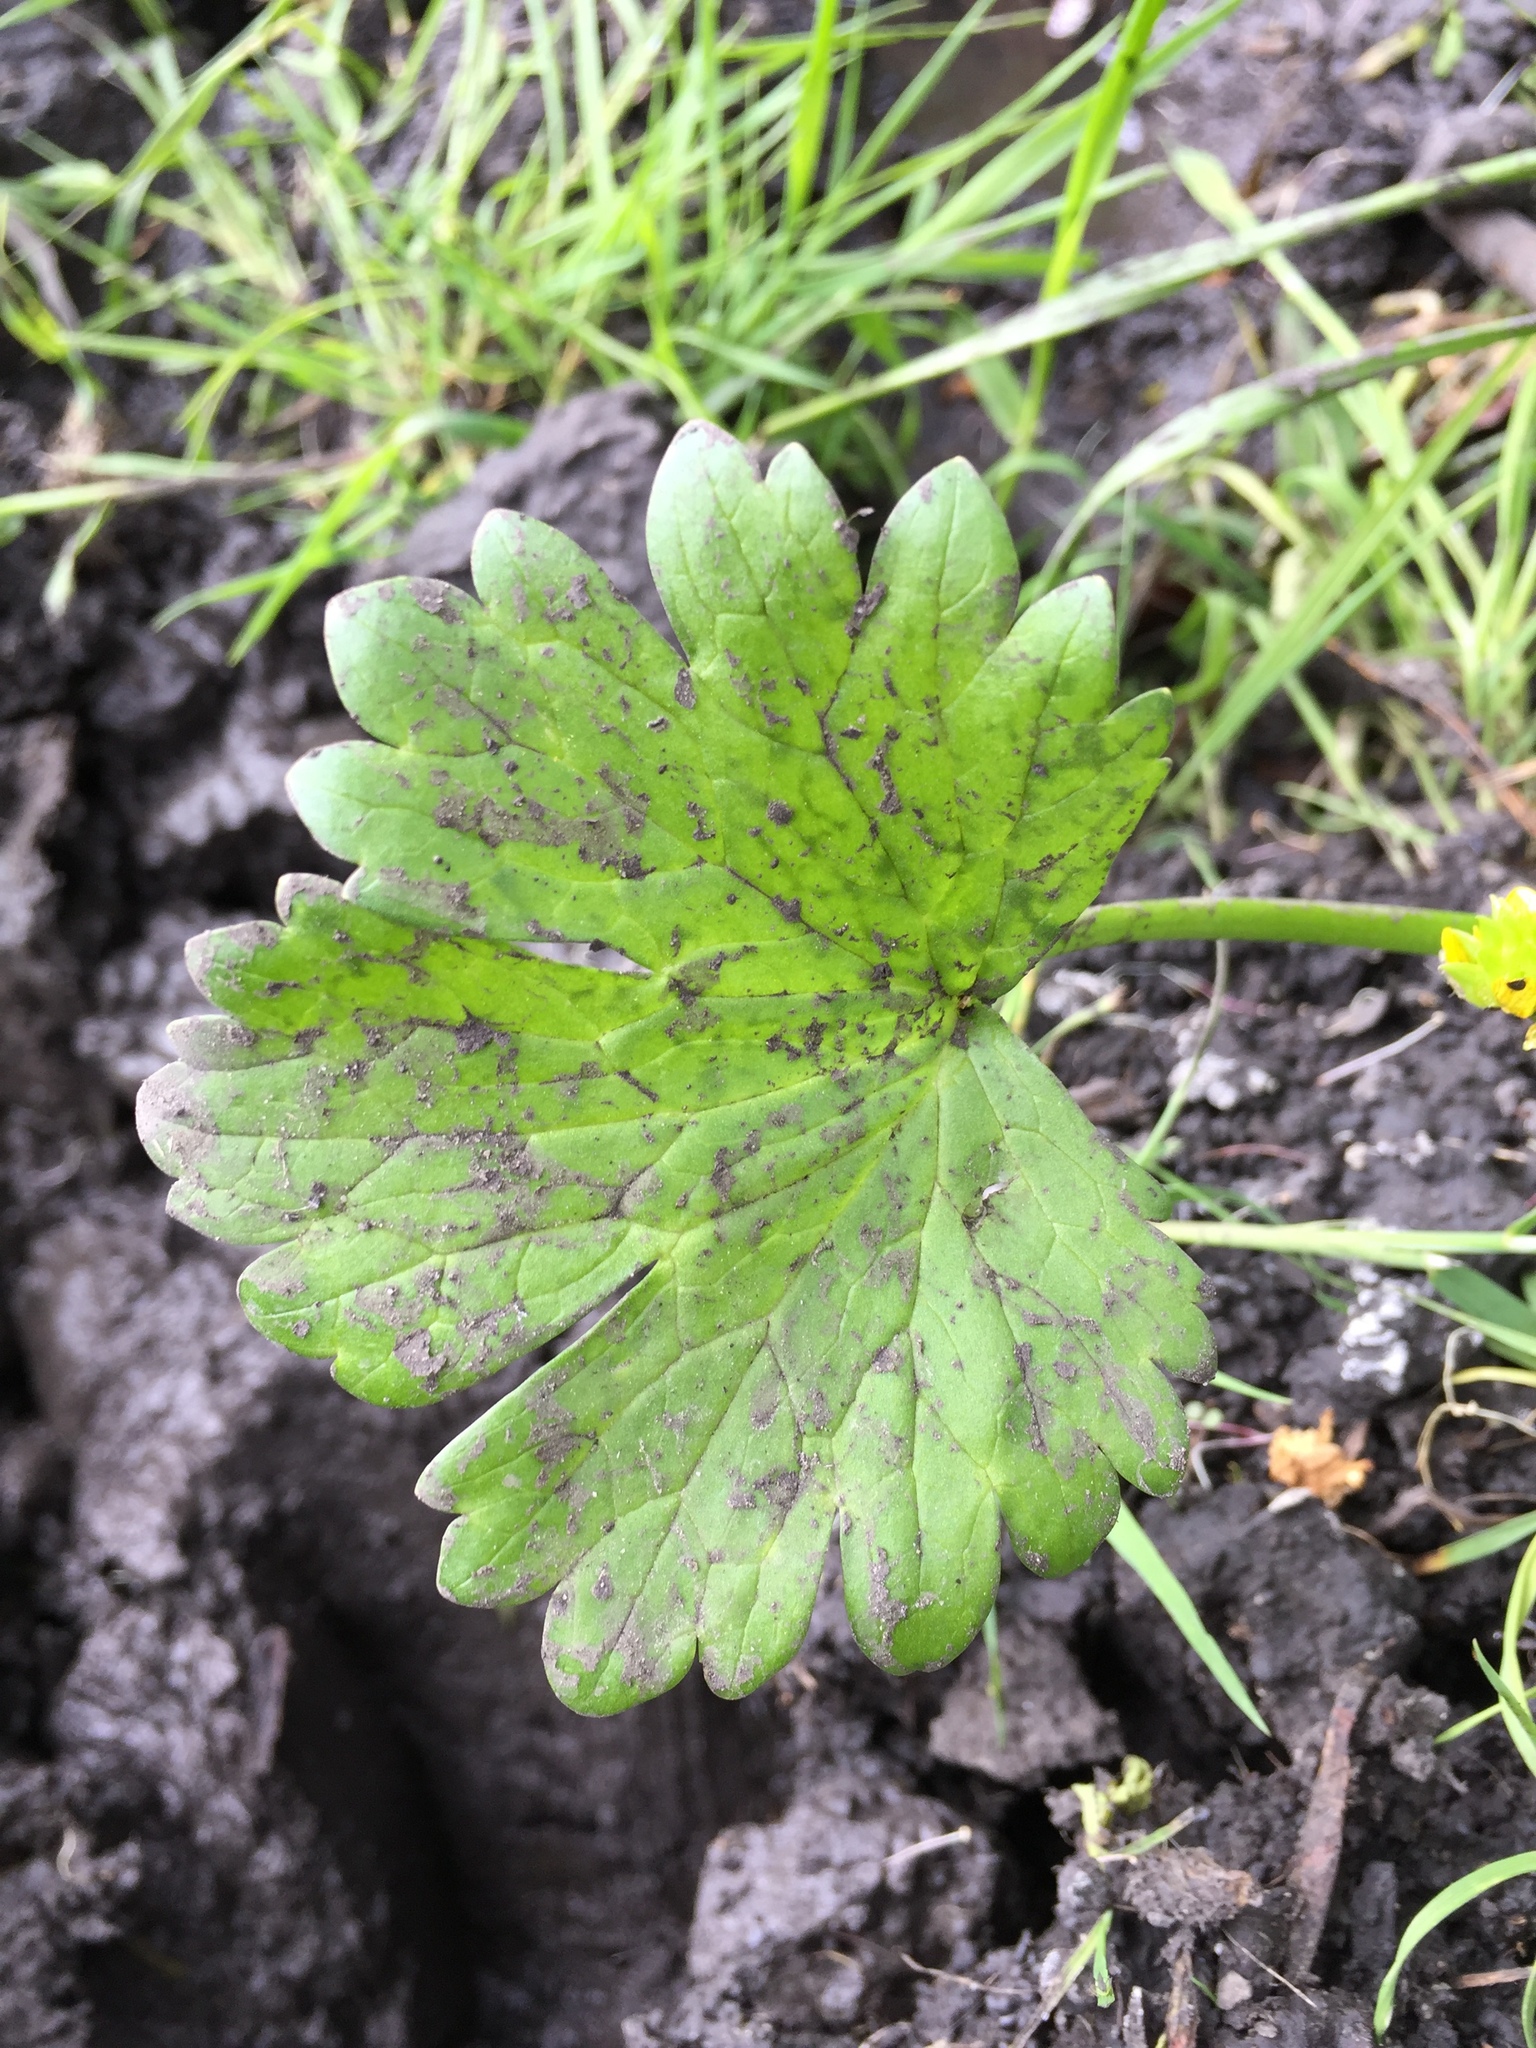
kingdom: Plantae
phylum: Tracheophyta
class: Magnoliopsida
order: Ranunculales
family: Ranunculaceae
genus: Ranunculus
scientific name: Ranunculus muricatus
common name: Rough-fruited buttercup
